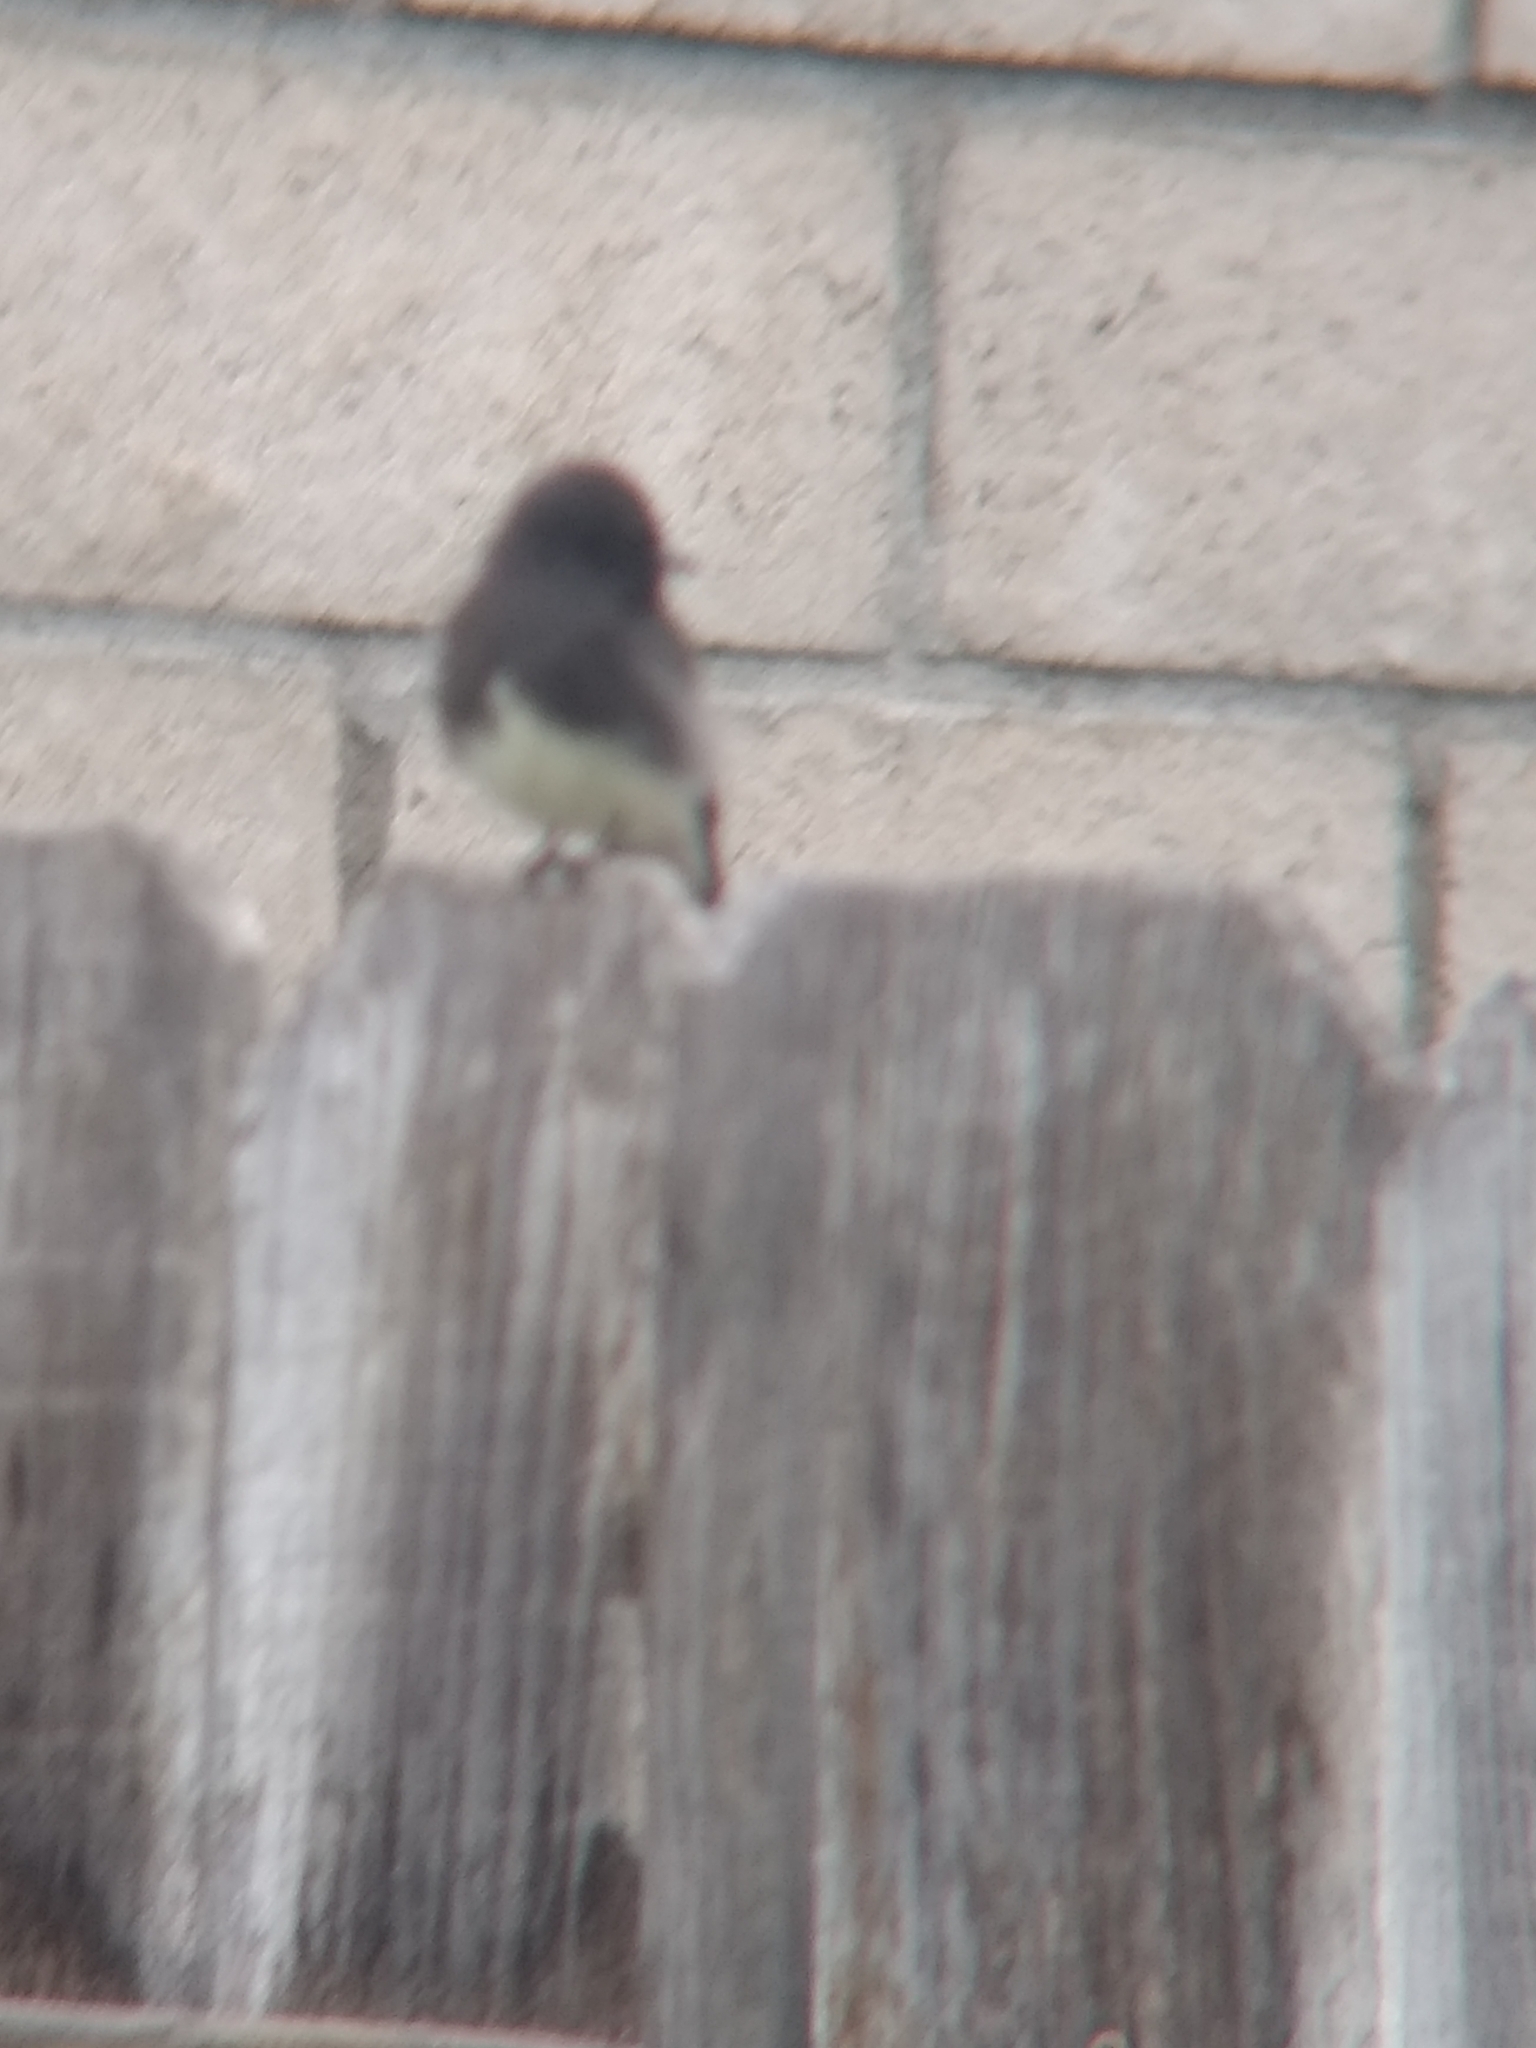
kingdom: Animalia
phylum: Chordata
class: Aves
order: Passeriformes
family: Tyrannidae
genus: Sayornis
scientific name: Sayornis nigricans
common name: Black phoebe
